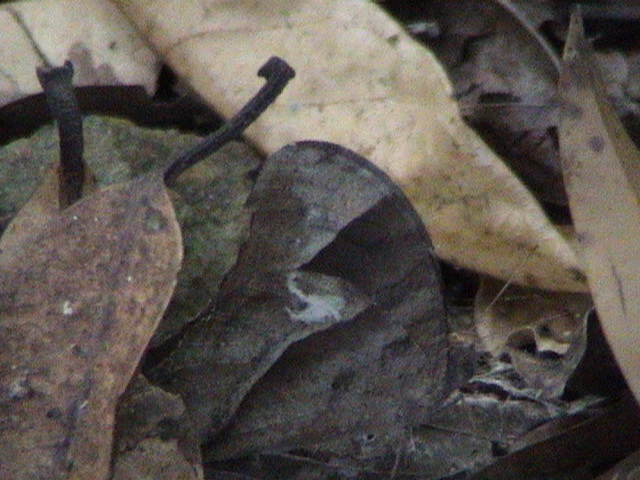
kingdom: Animalia
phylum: Arthropoda
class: Insecta
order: Lepidoptera
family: Nymphalidae
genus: Melanitis
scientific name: Melanitis leda
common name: Twilight brown
